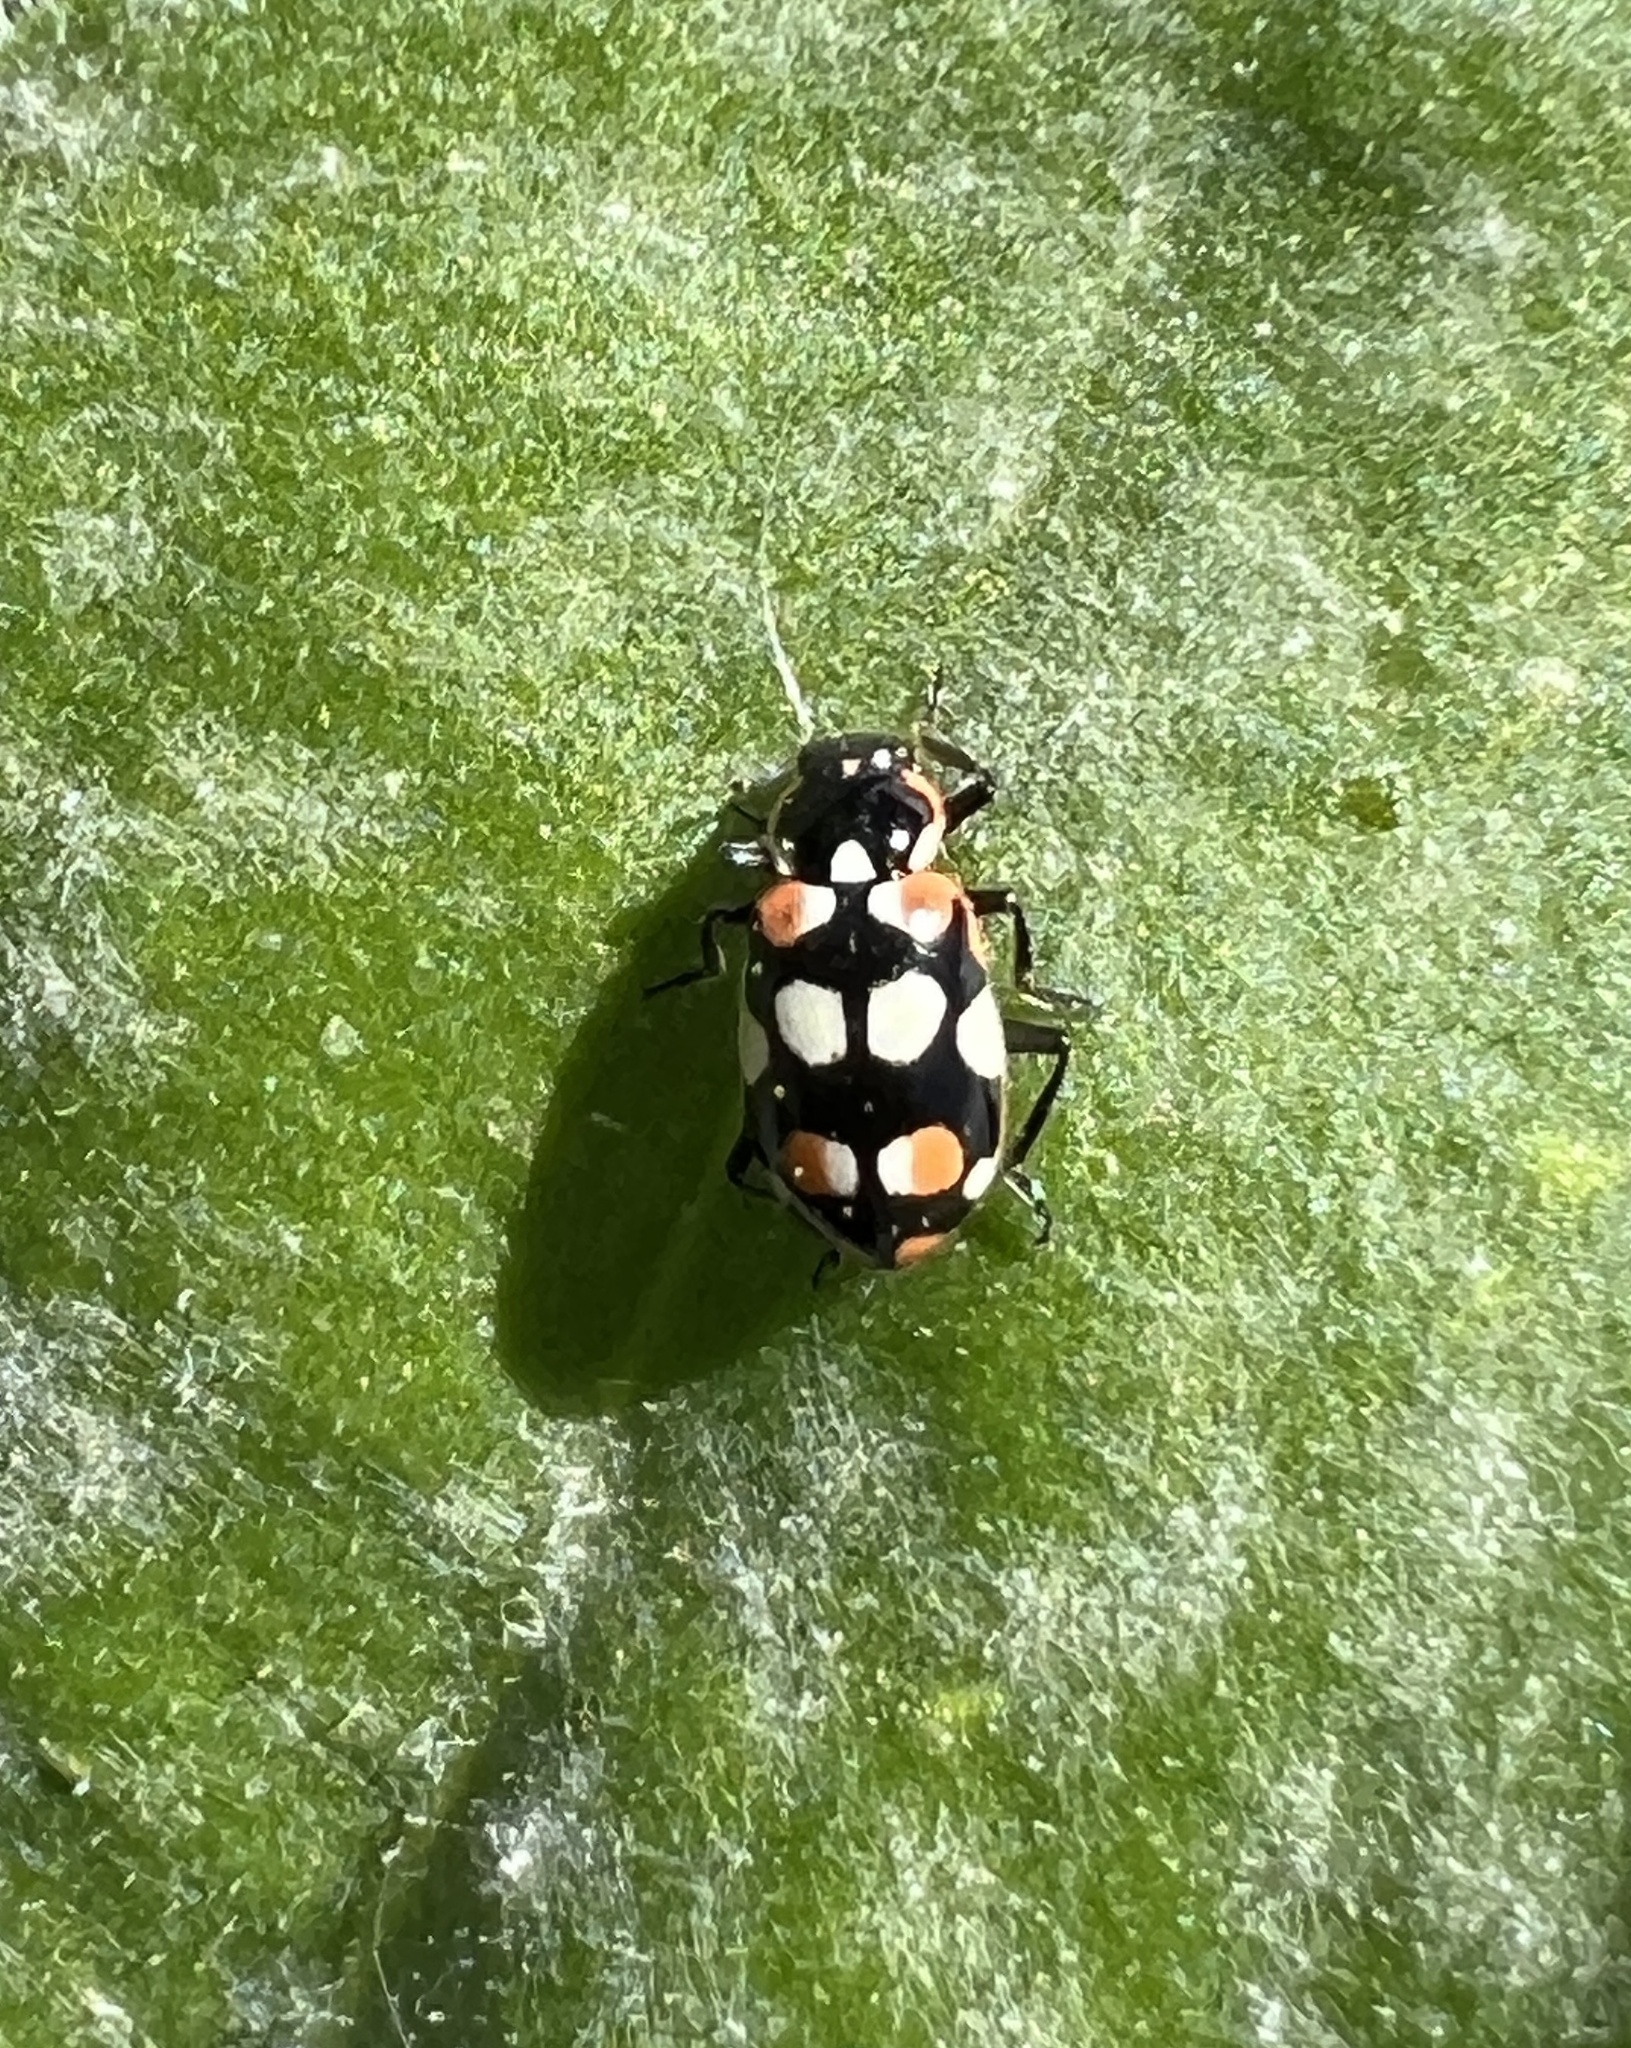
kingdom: Animalia
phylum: Arthropoda
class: Insecta
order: Coleoptera
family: Coccinellidae
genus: Eriopis
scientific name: Eriopis connexa
